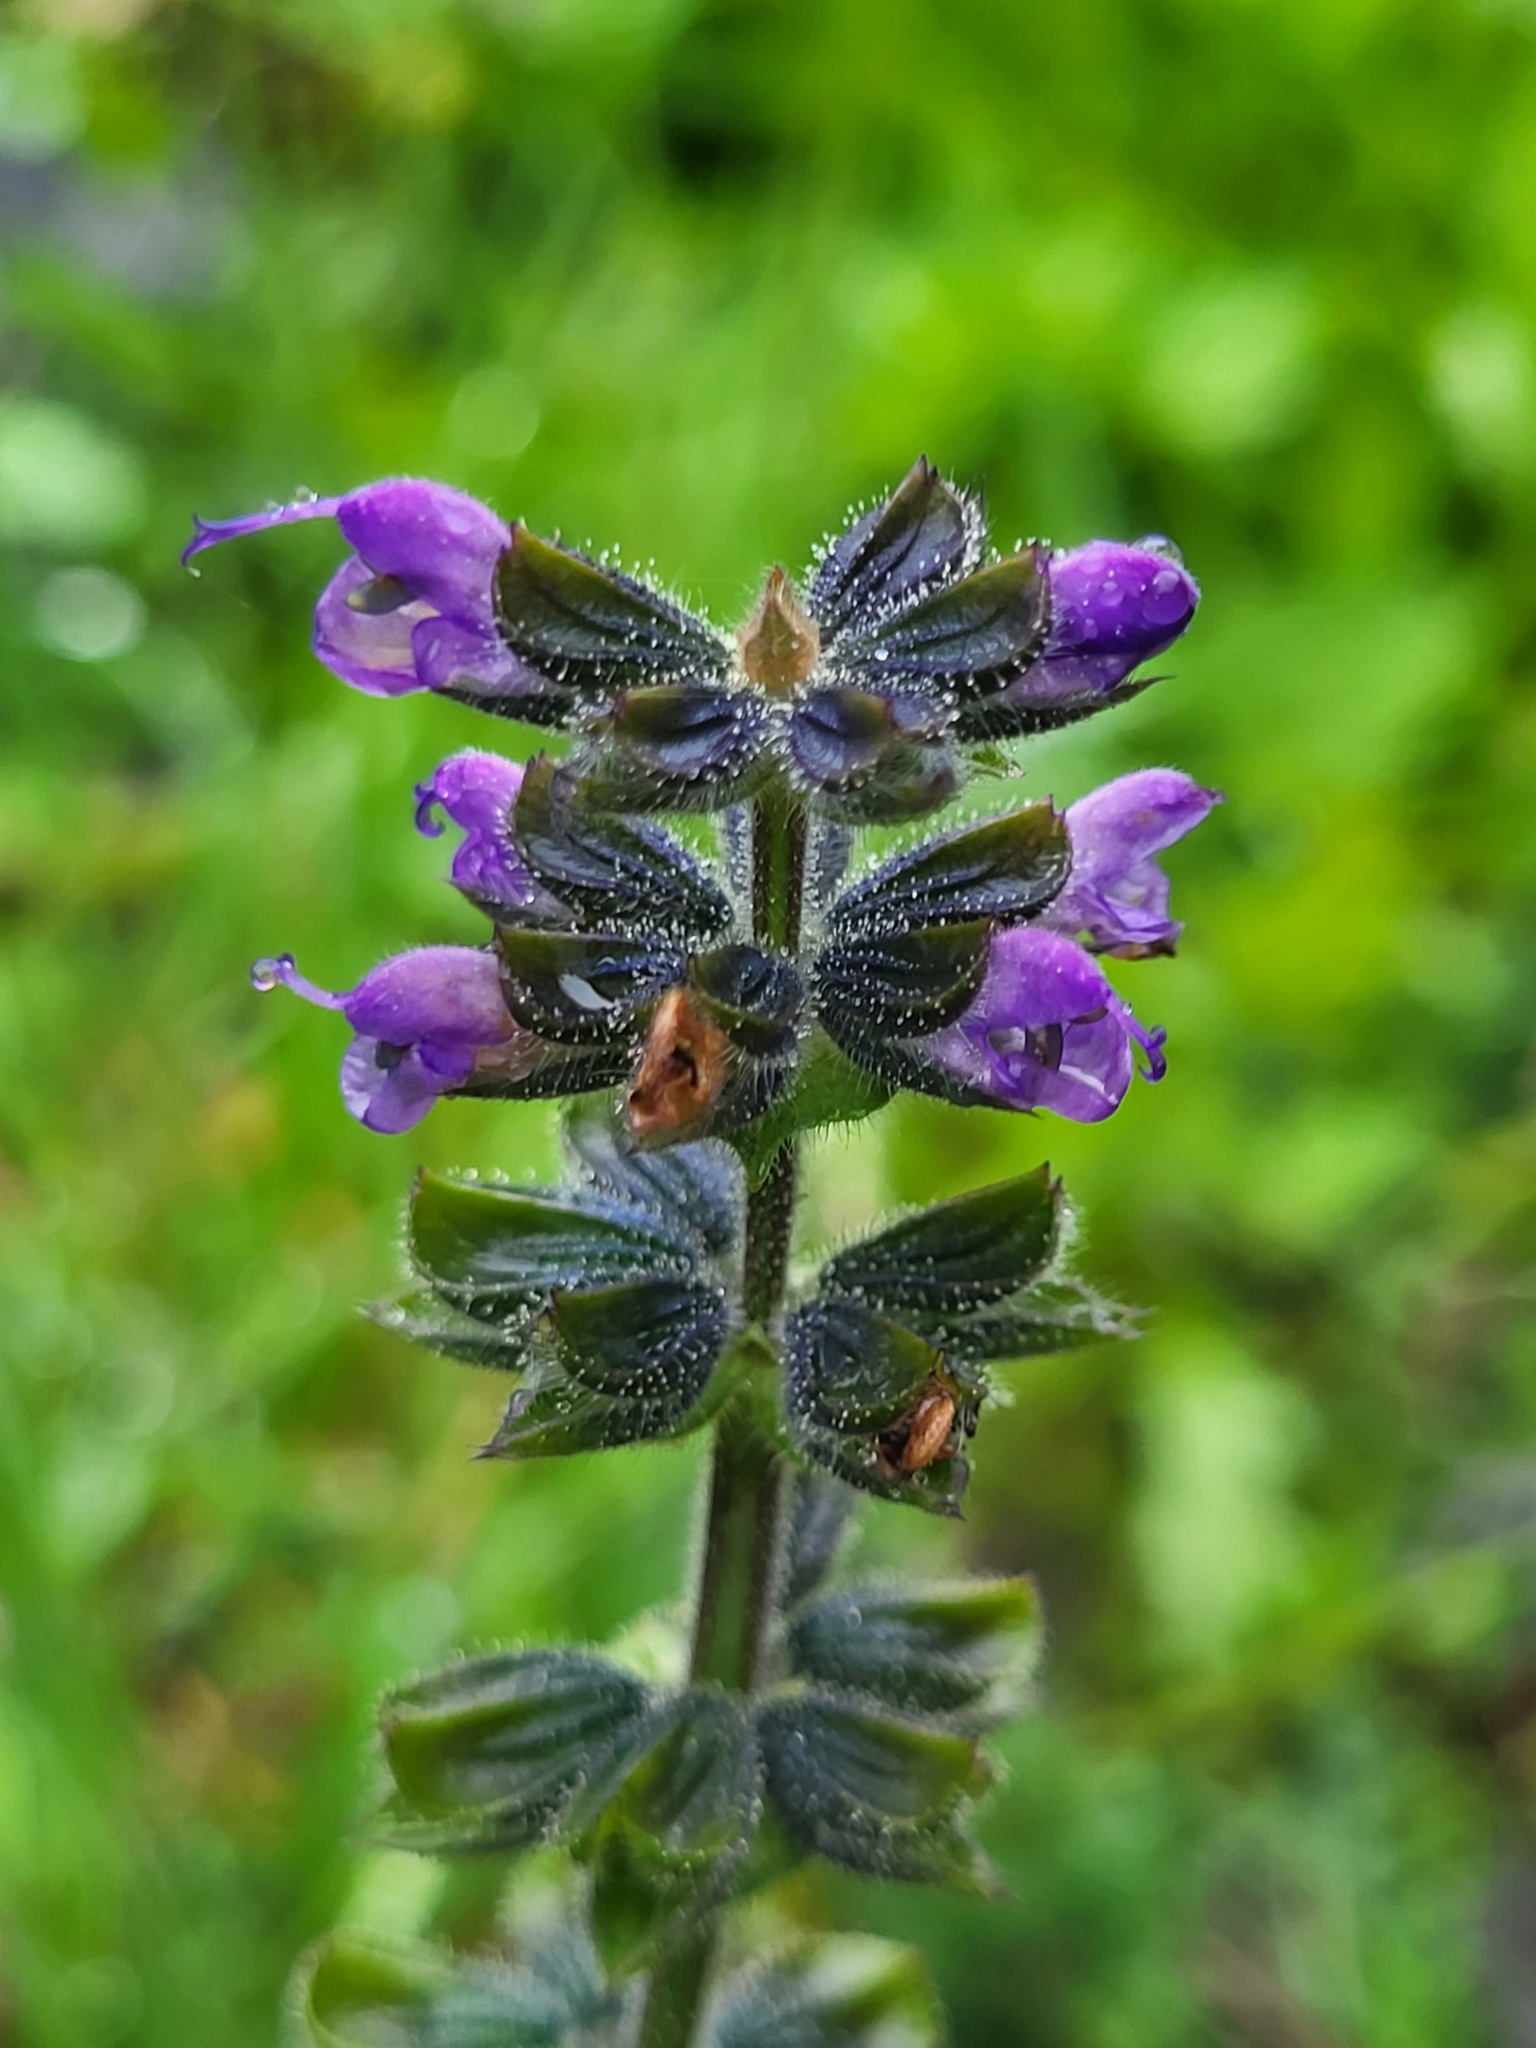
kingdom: Plantae
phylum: Tracheophyta
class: Magnoliopsida
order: Lamiales
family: Lamiaceae
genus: Salvia
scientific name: Salvia verbenaca
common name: Wild clary
